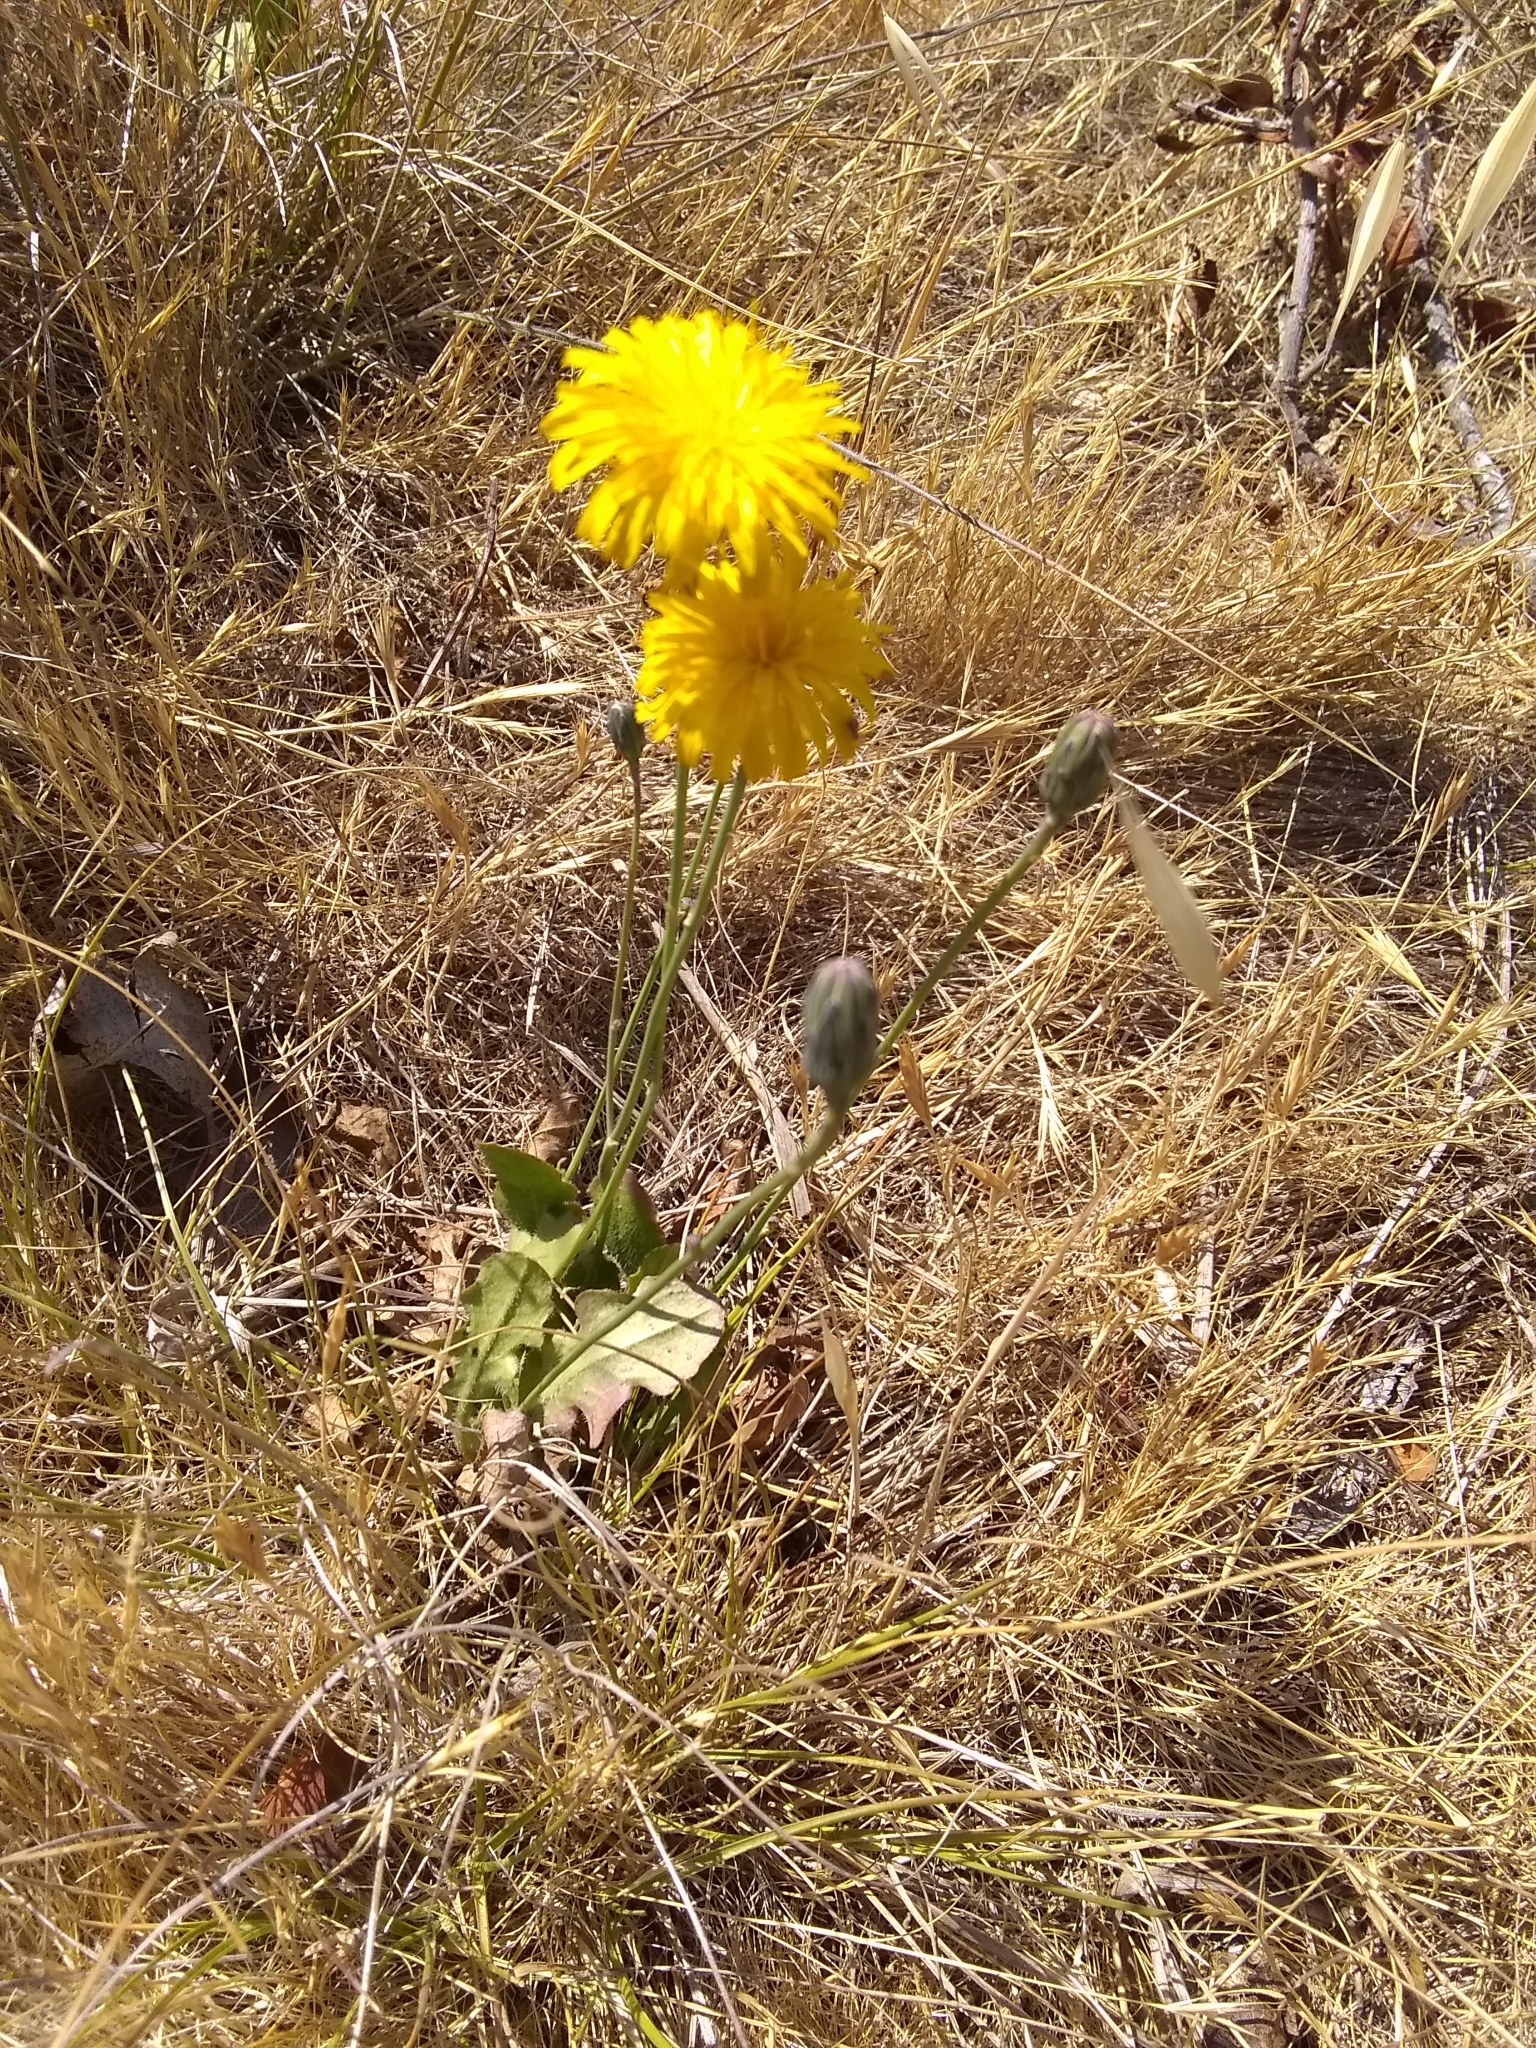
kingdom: Plantae
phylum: Tracheophyta
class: Magnoliopsida
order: Asterales
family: Asteraceae
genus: Hypochaeris
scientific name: Hypochaeris radicata
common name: Flatweed
